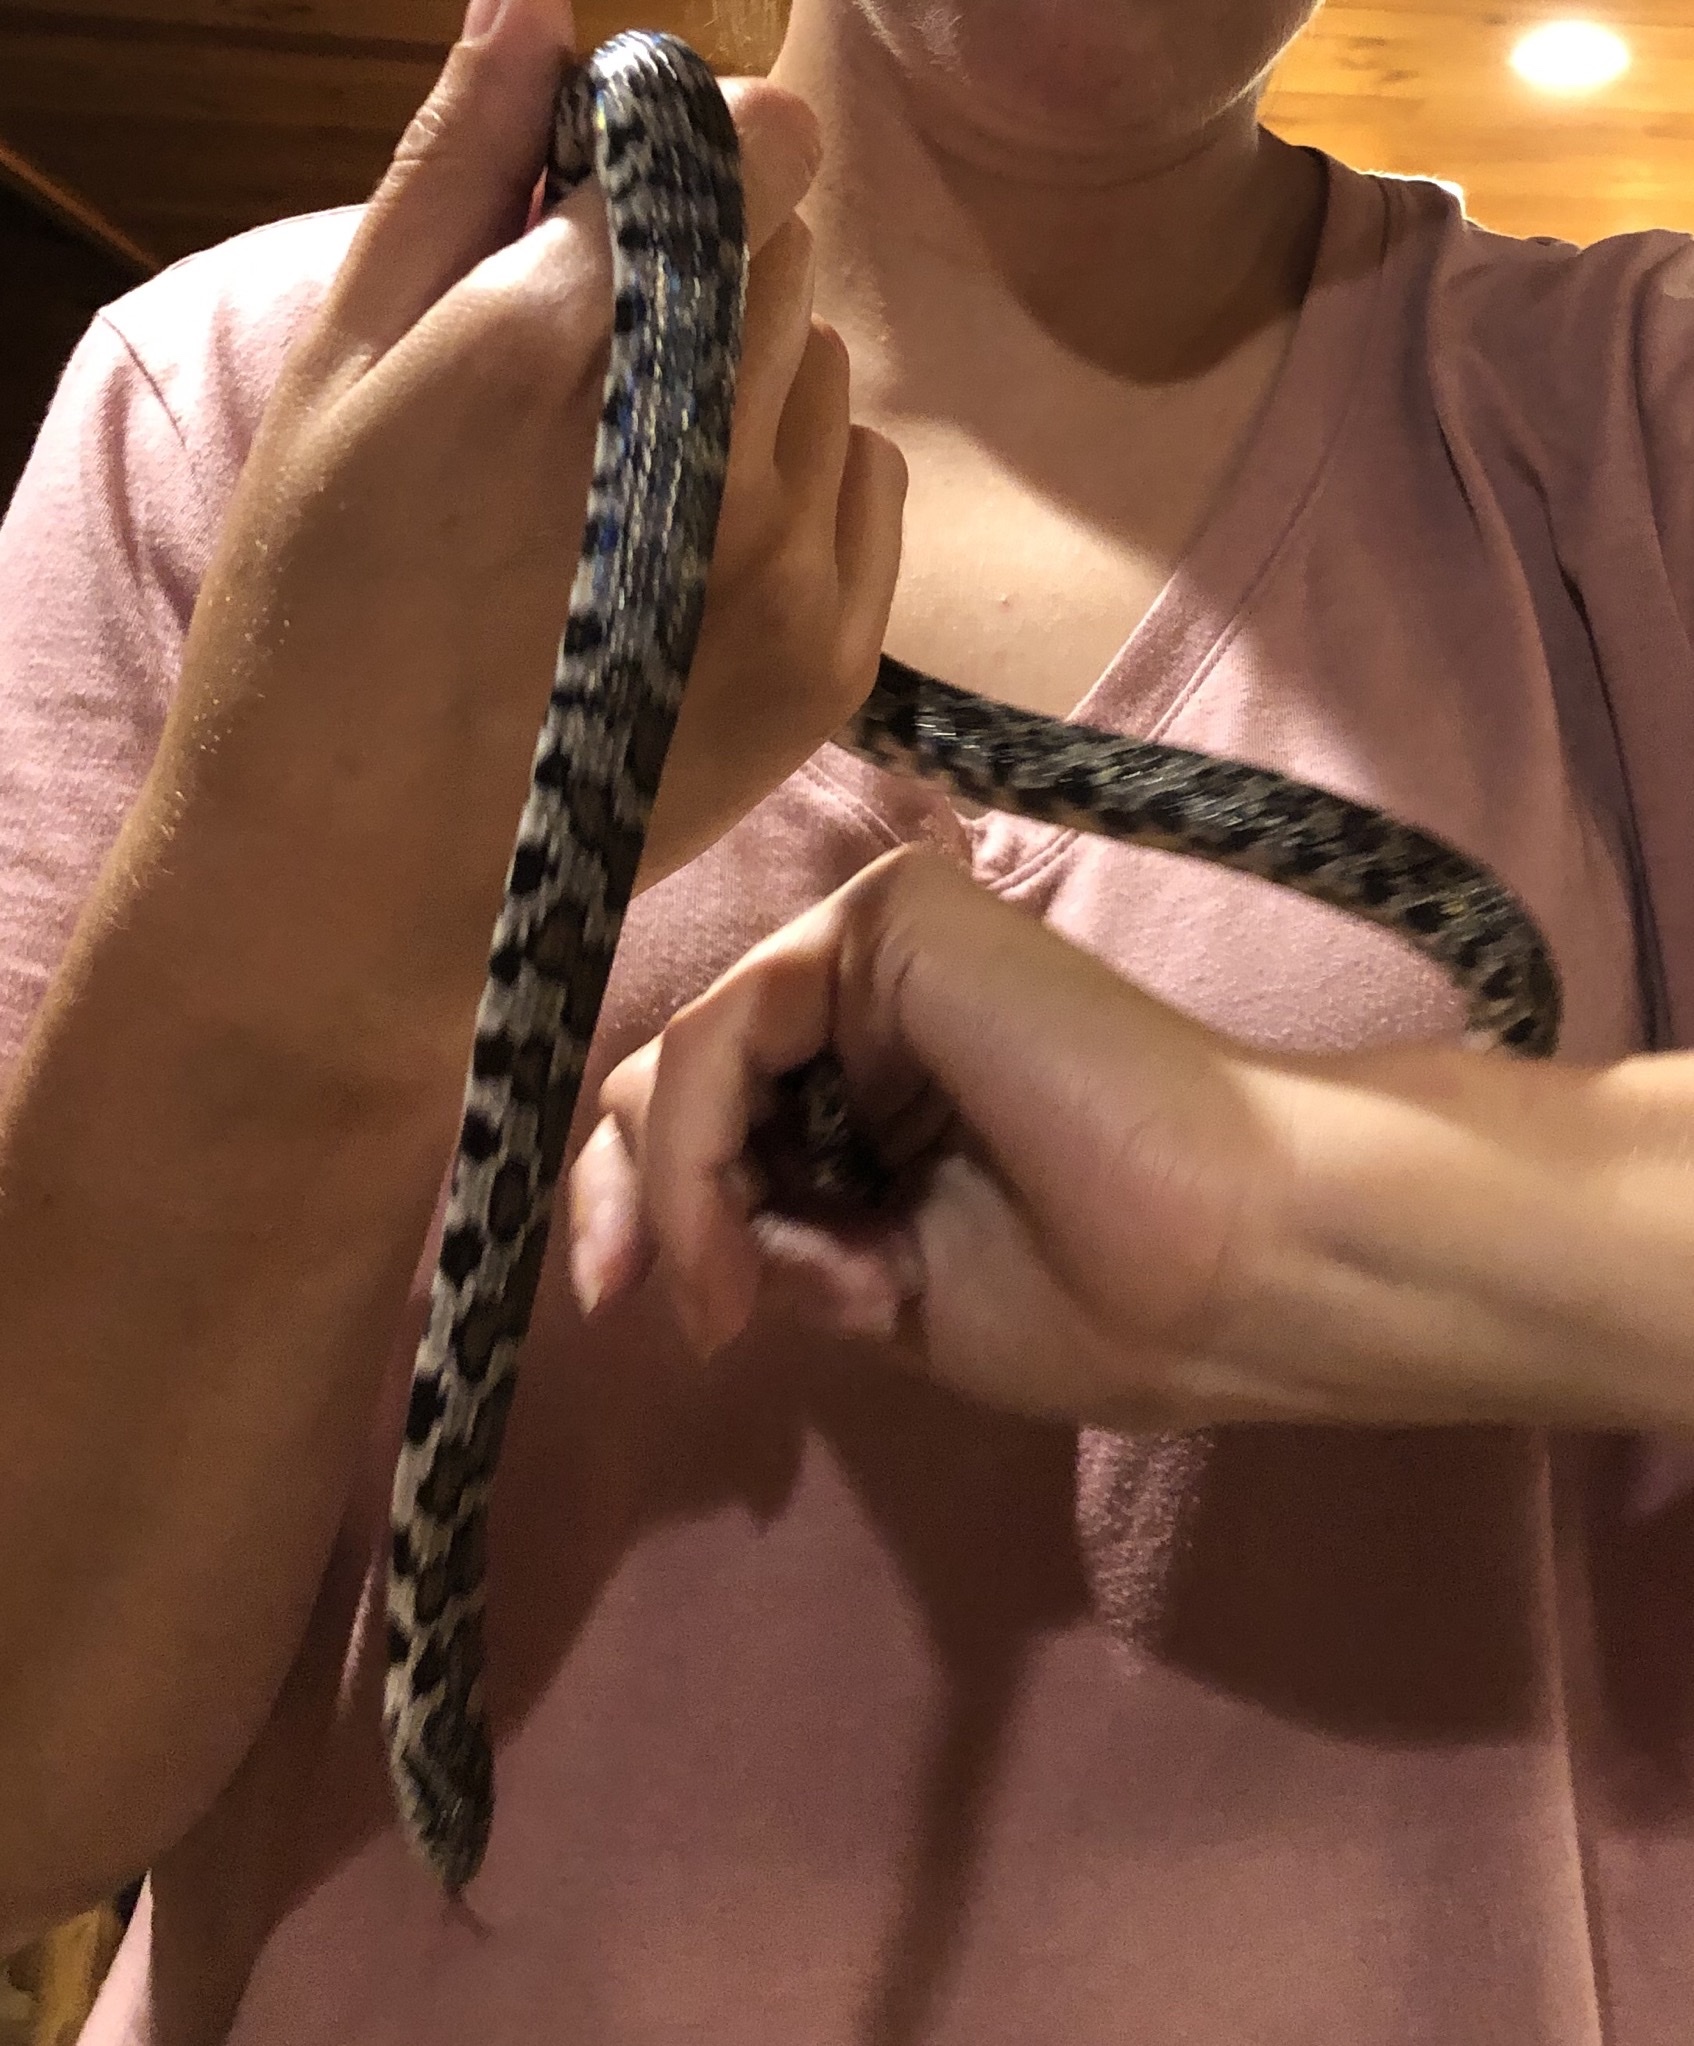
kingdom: Animalia
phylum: Chordata
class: Squamata
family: Colubridae
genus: Lampropeltis
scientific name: Lampropeltis triangulum
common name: Eastern milksnake
